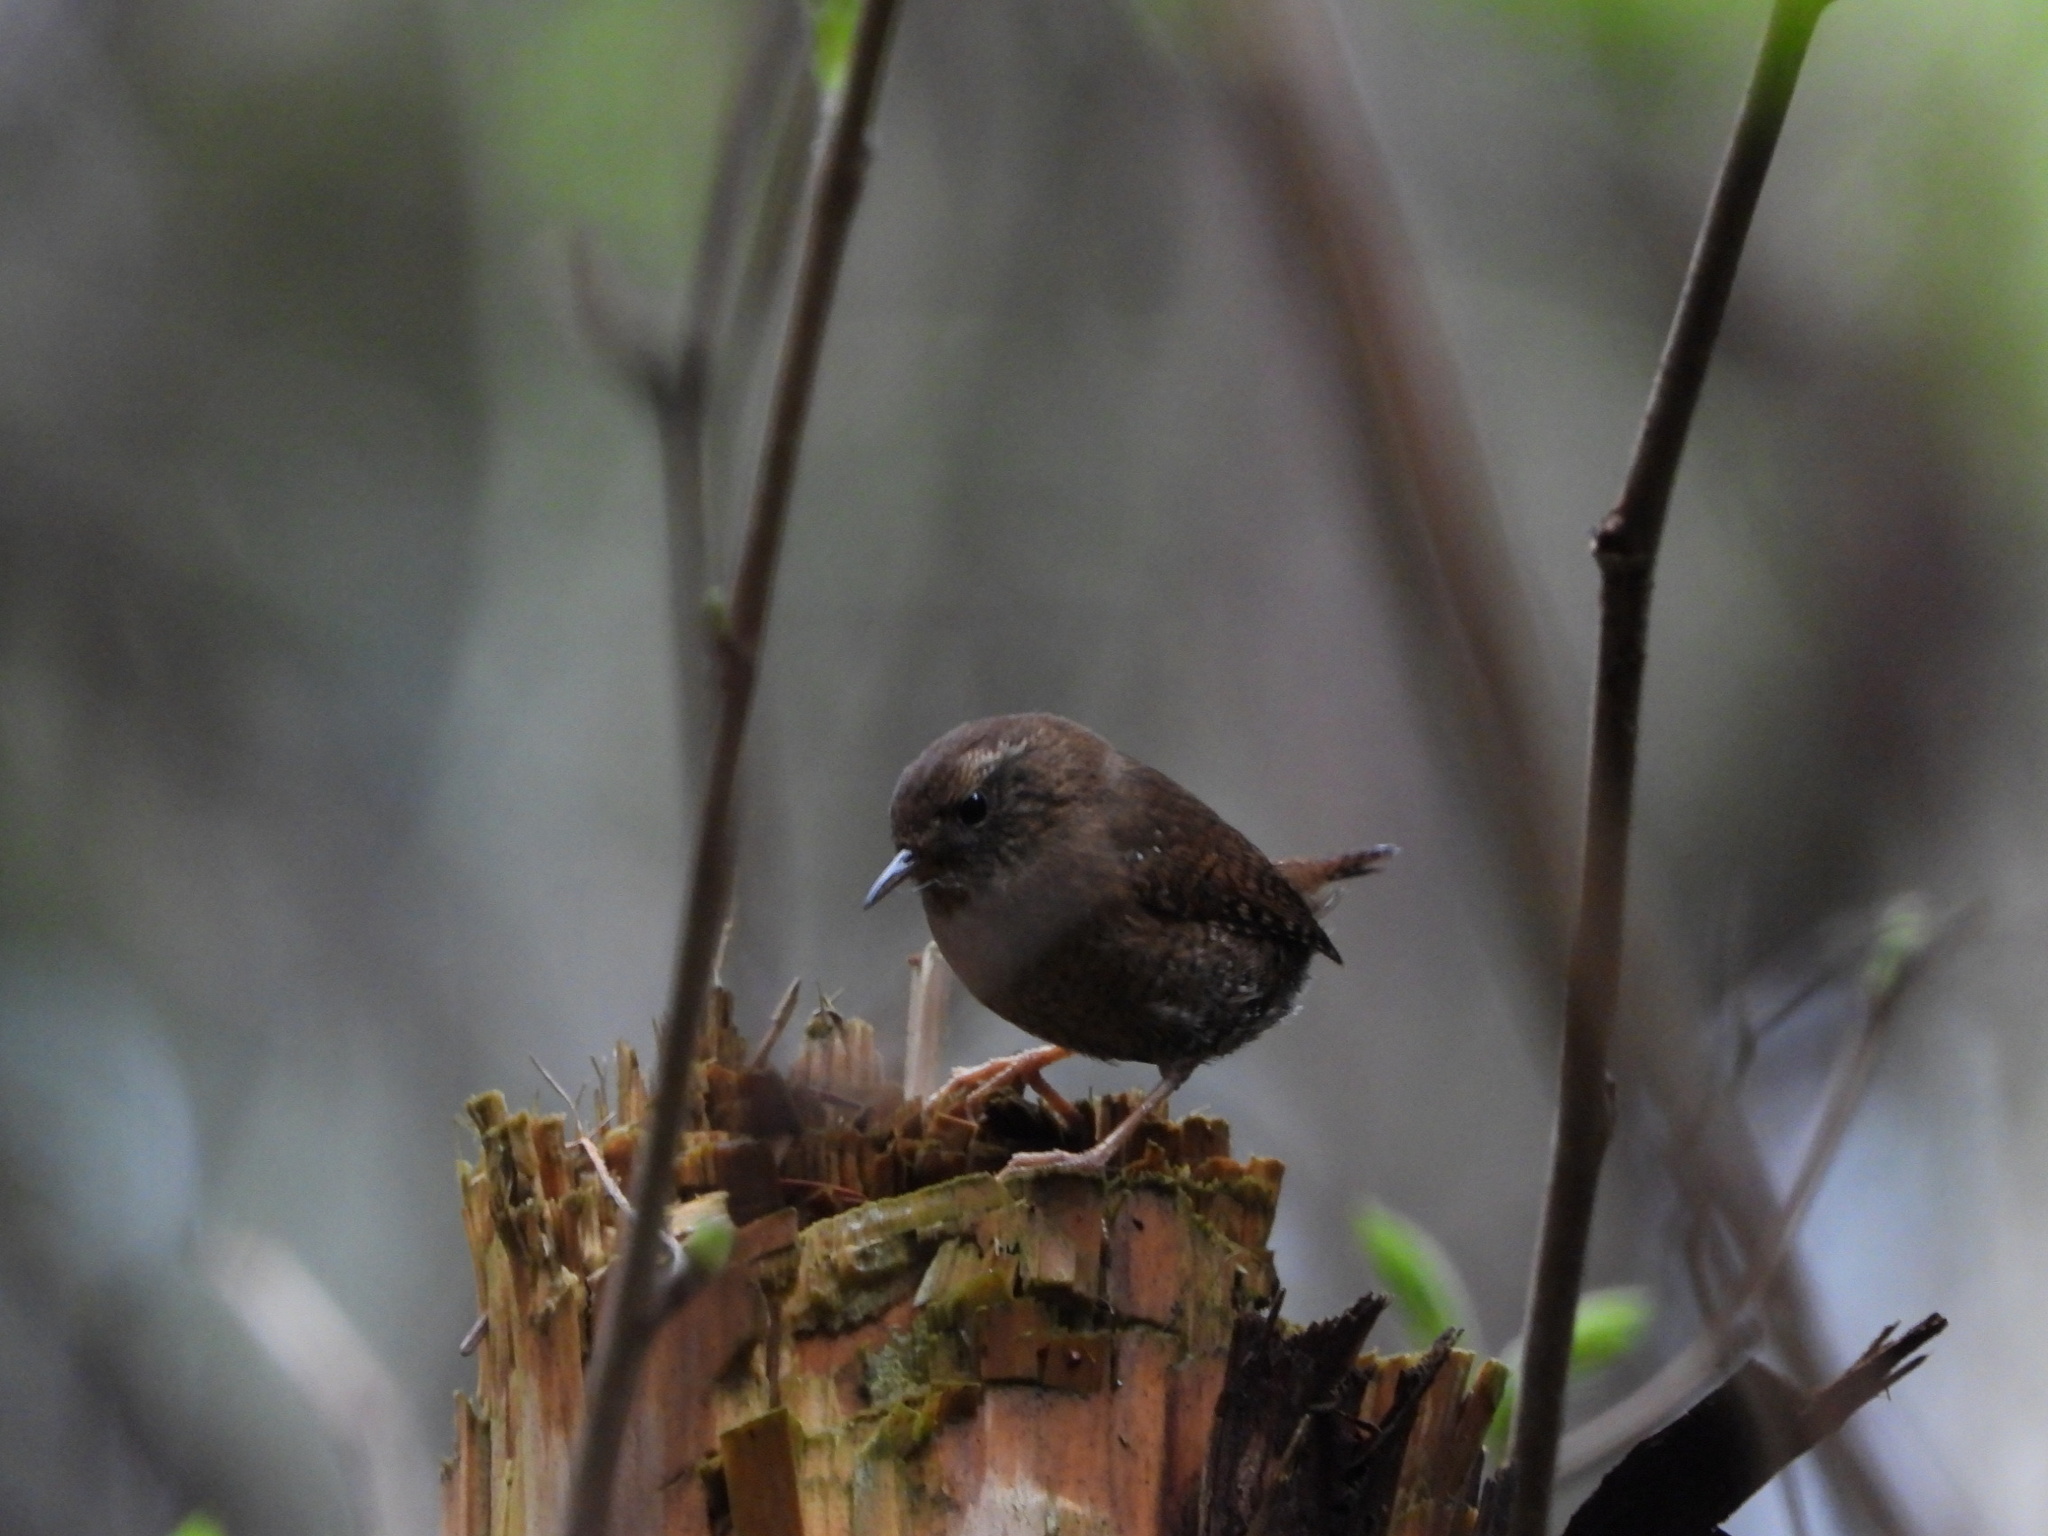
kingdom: Animalia
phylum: Chordata
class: Aves
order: Passeriformes
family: Troglodytidae
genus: Troglodytes
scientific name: Troglodytes pacificus
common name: Pacific wren
